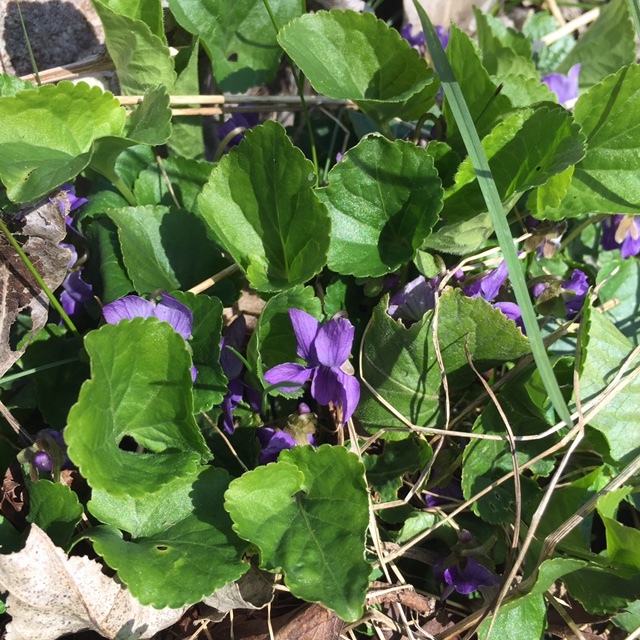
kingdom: Plantae
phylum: Tracheophyta
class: Magnoliopsida
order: Malpighiales
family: Violaceae
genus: Viola
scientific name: Viola odorata
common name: Sweet violet
